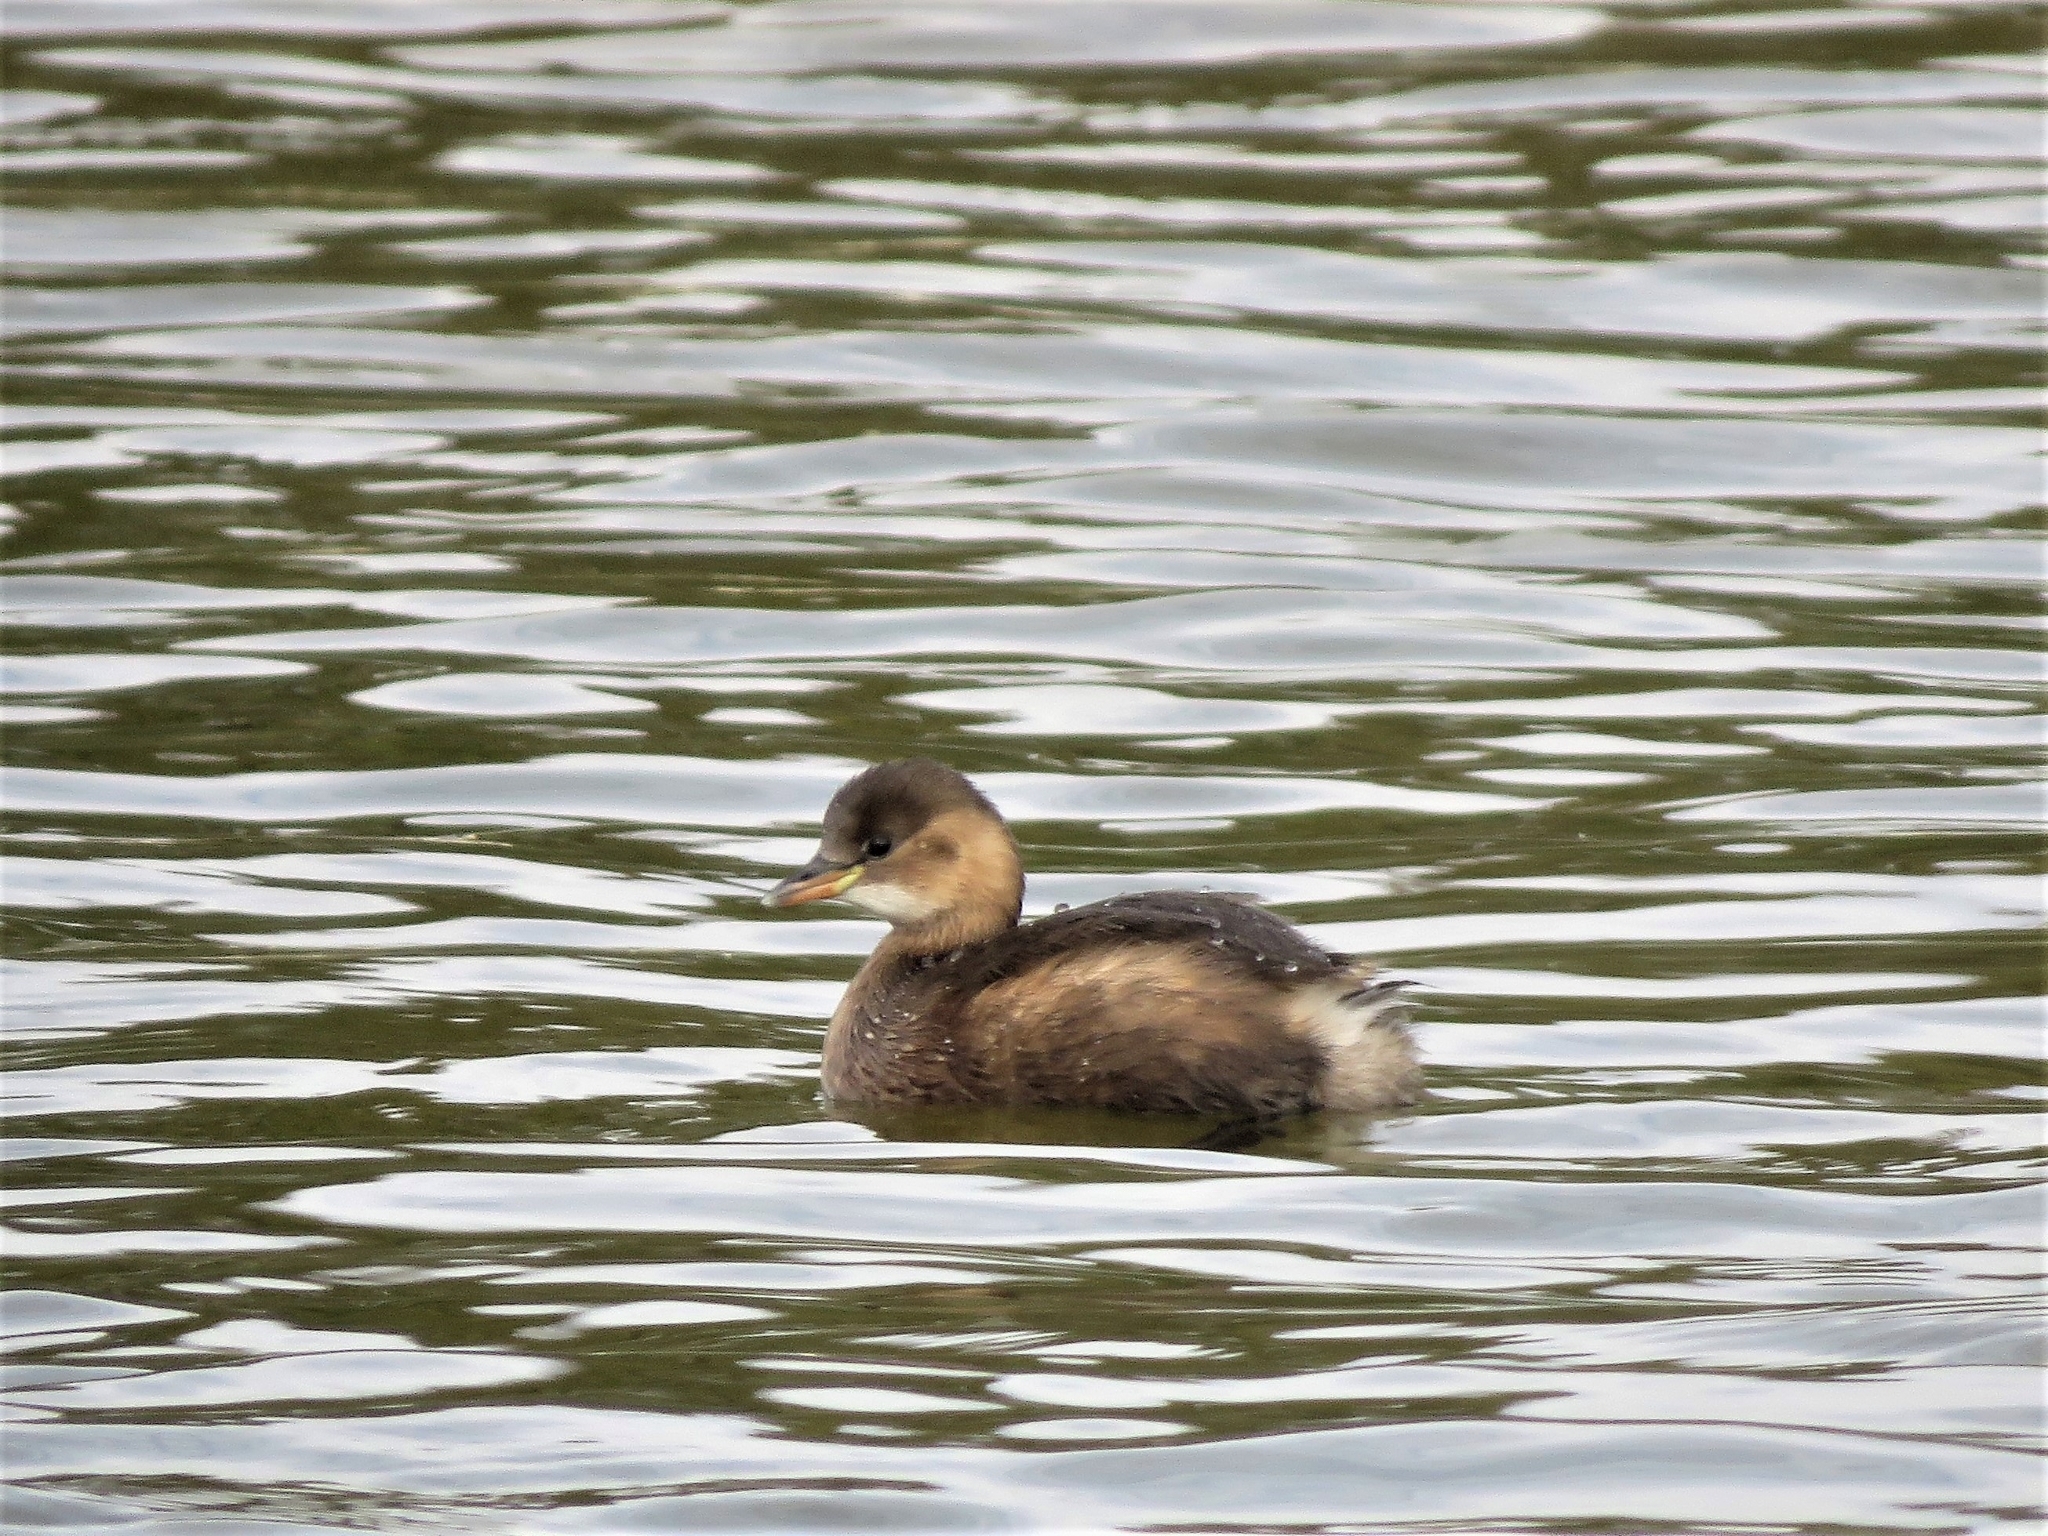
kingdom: Animalia
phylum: Chordata
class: Aves
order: Podicipediformes
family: Podicipedidae
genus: Tachybaptus
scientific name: Tachybaptus ruficollis
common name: Little grebe
